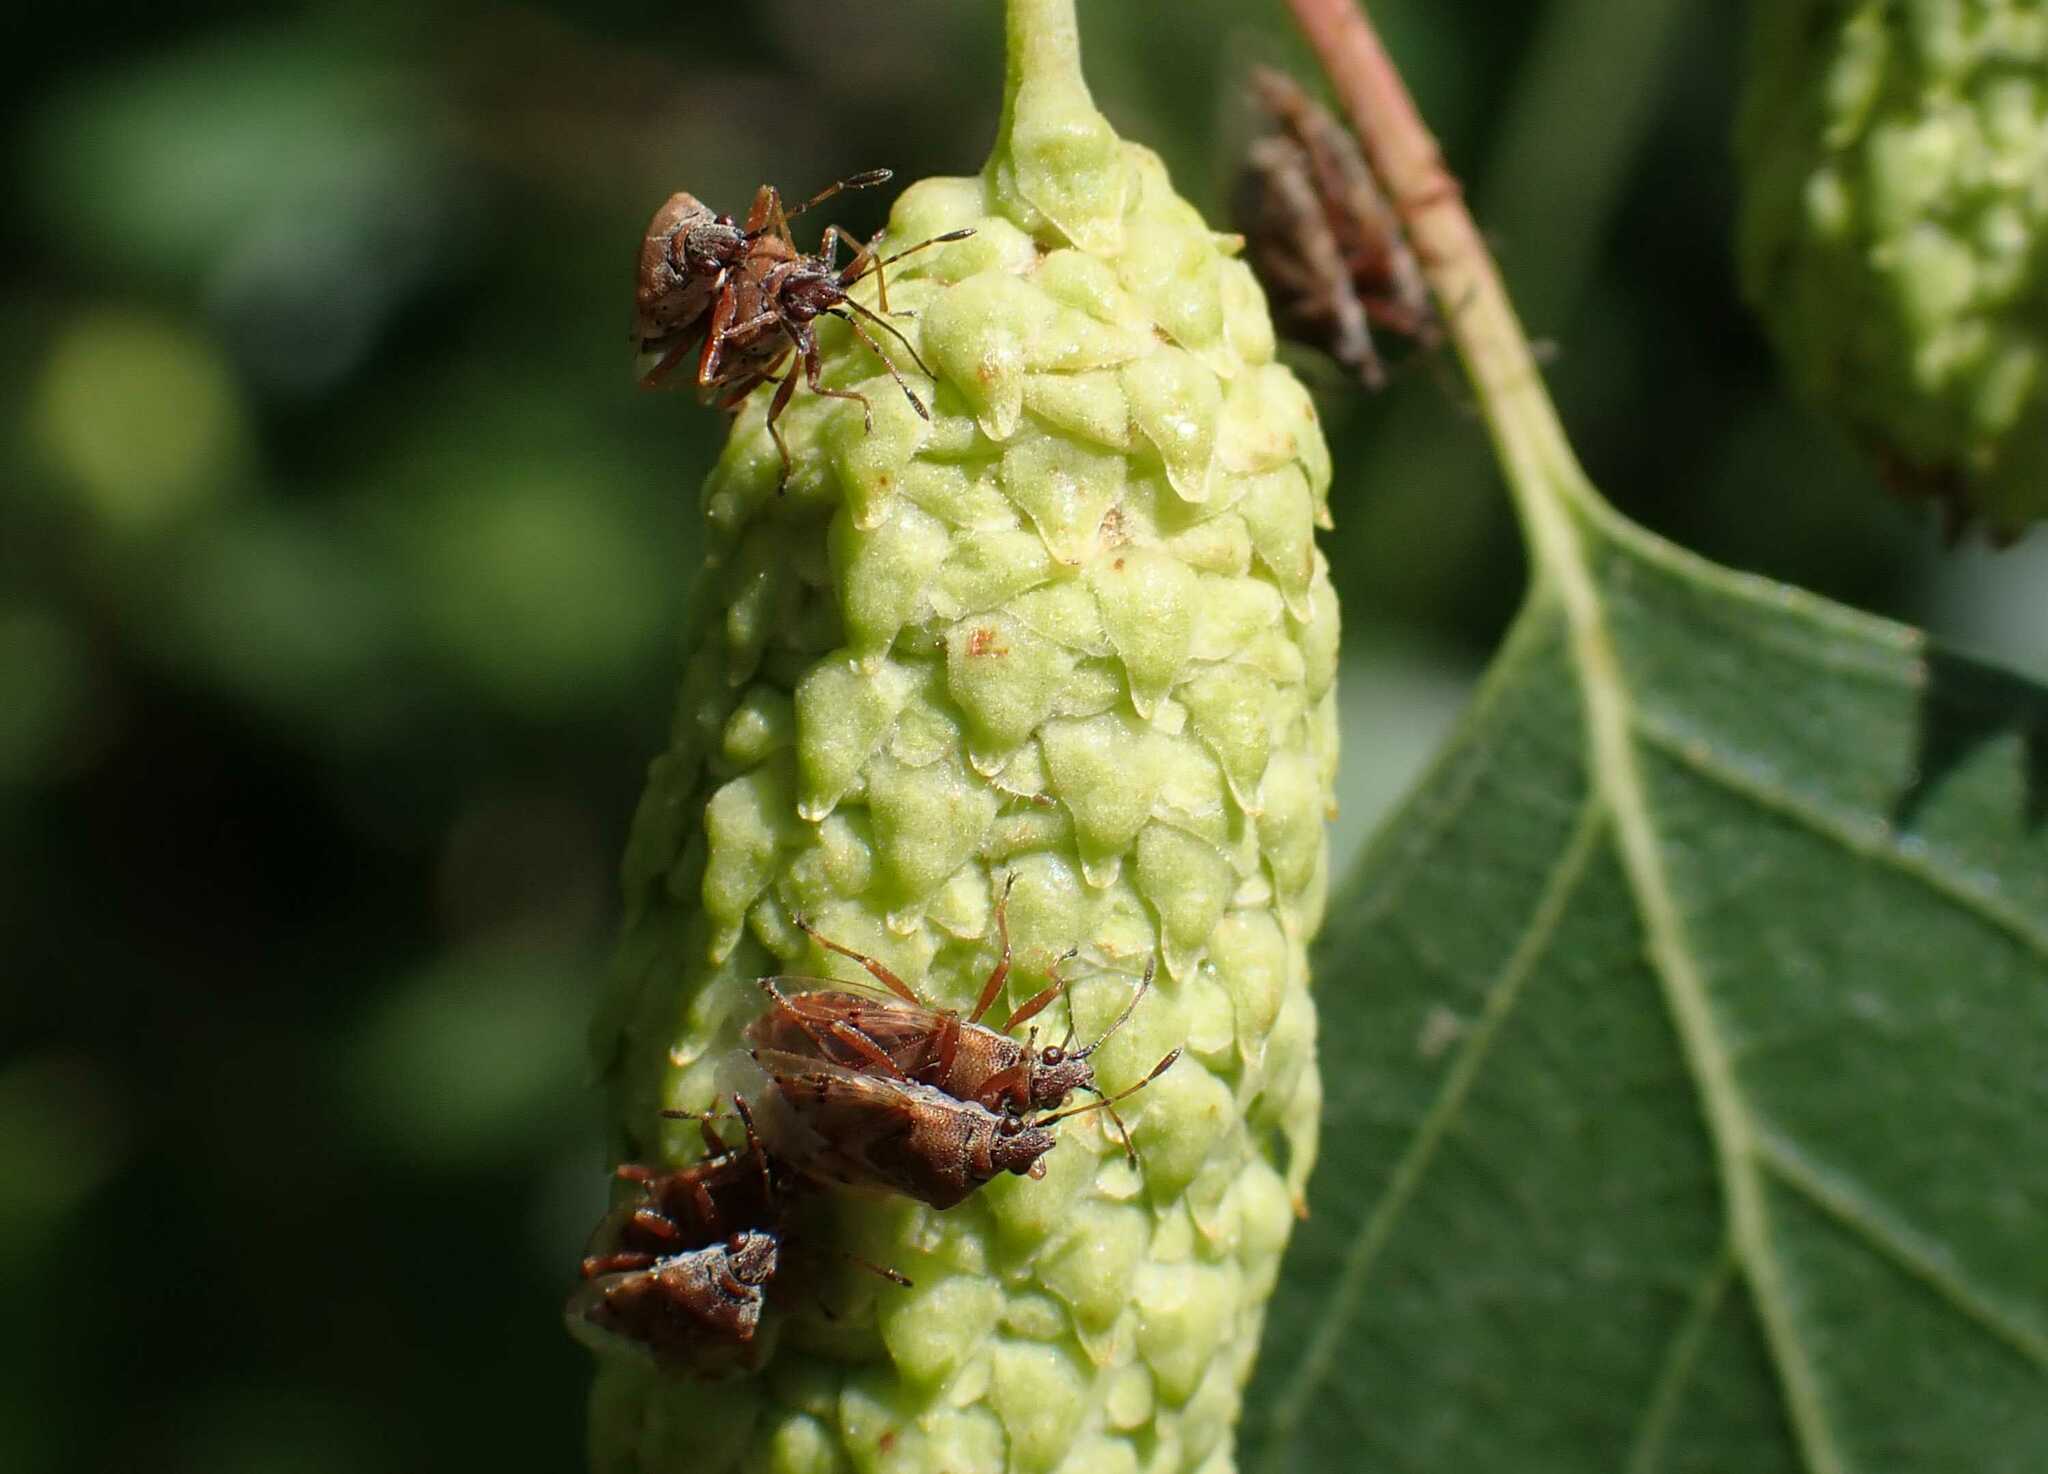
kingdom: Animalia
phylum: Arthropoda
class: Insecta
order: Hemiptera
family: Lygaeidae
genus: Kleidocerys
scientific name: Kleidocerys resedae
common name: Birch catkin bug
